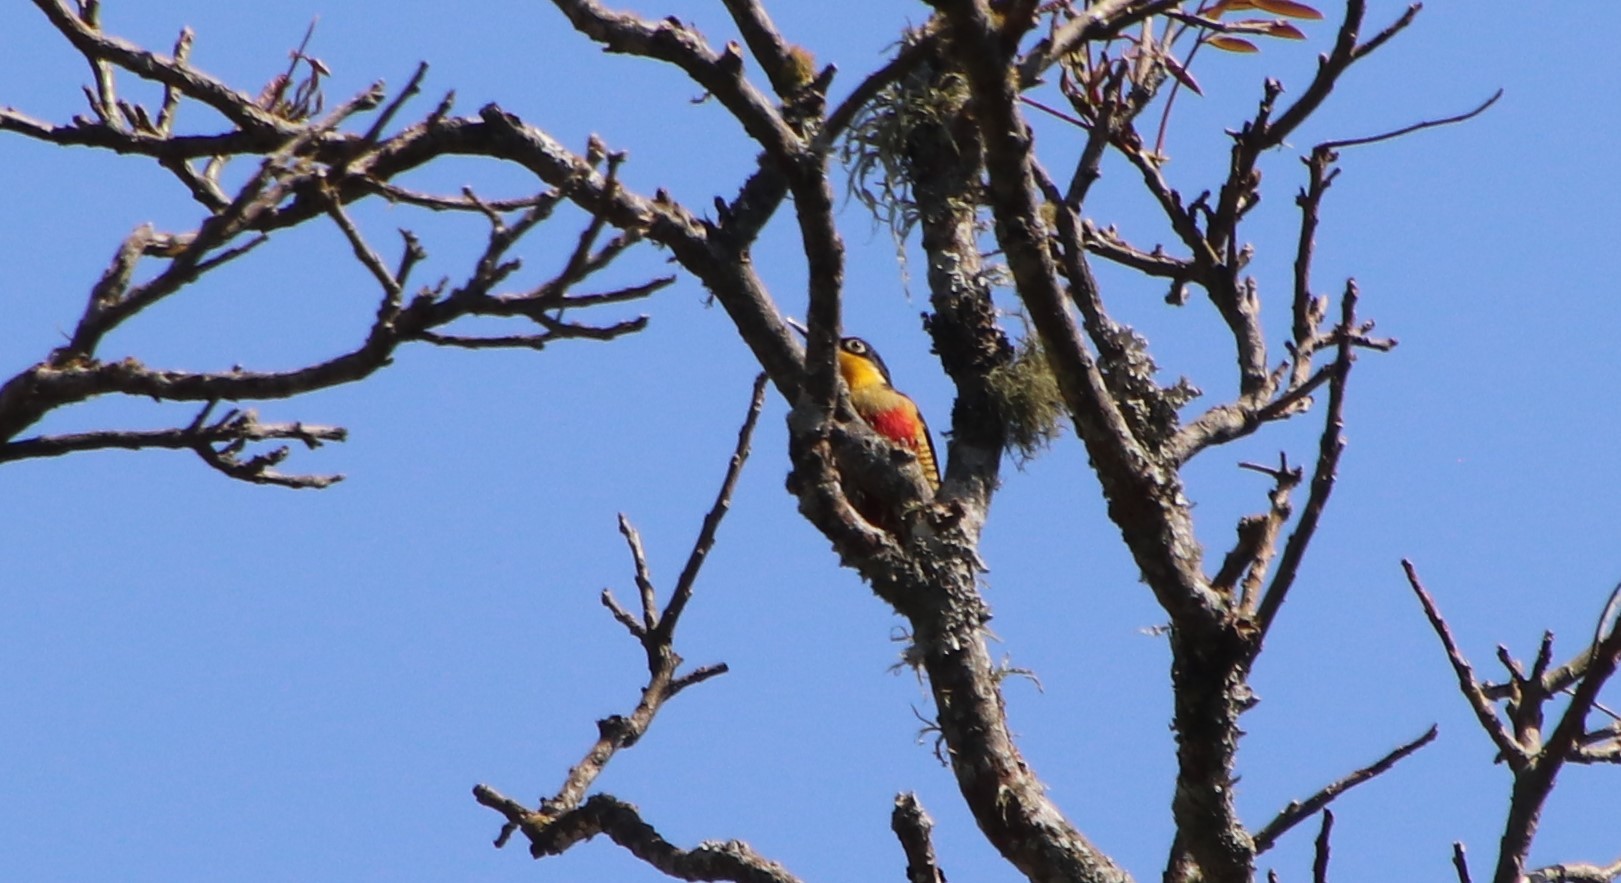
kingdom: Animalia
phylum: Chordata
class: Aves
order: Piciformes
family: Picidae
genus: Melanerpes
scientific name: Melanerpes flavifrons
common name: Yellow-fronted woodpecker
